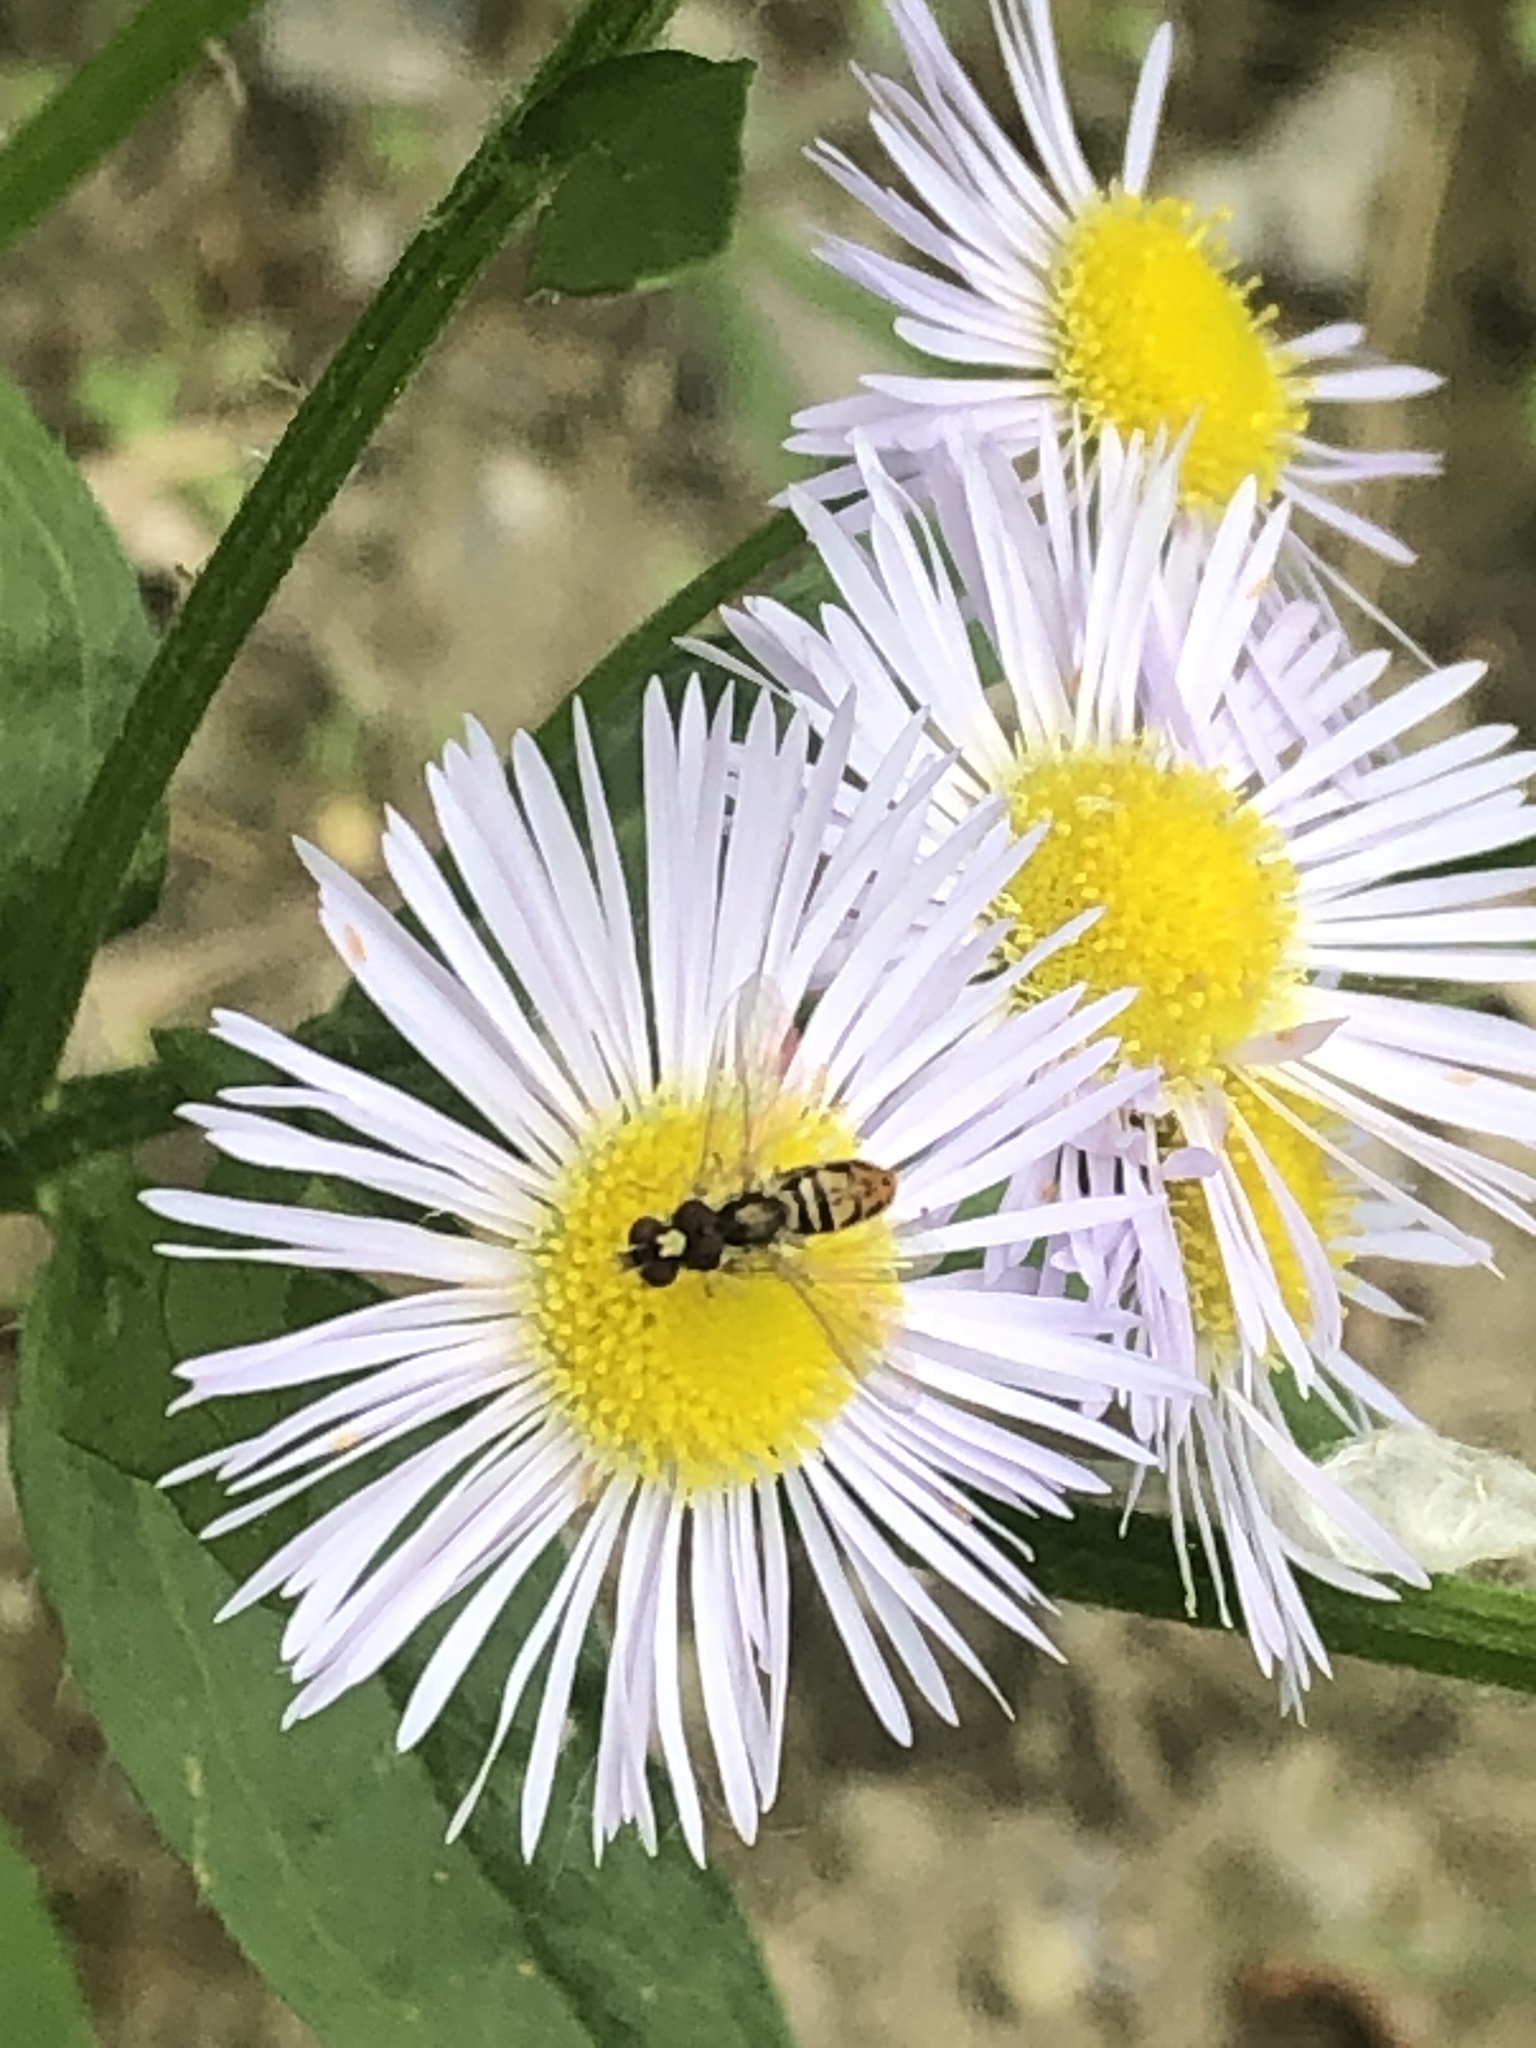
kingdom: Animalia
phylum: Arthropoda
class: Insecta
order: Diptera
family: Syrphidae
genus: Toxomerus
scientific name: Toxomerus marginatus
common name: Syrphid fly
